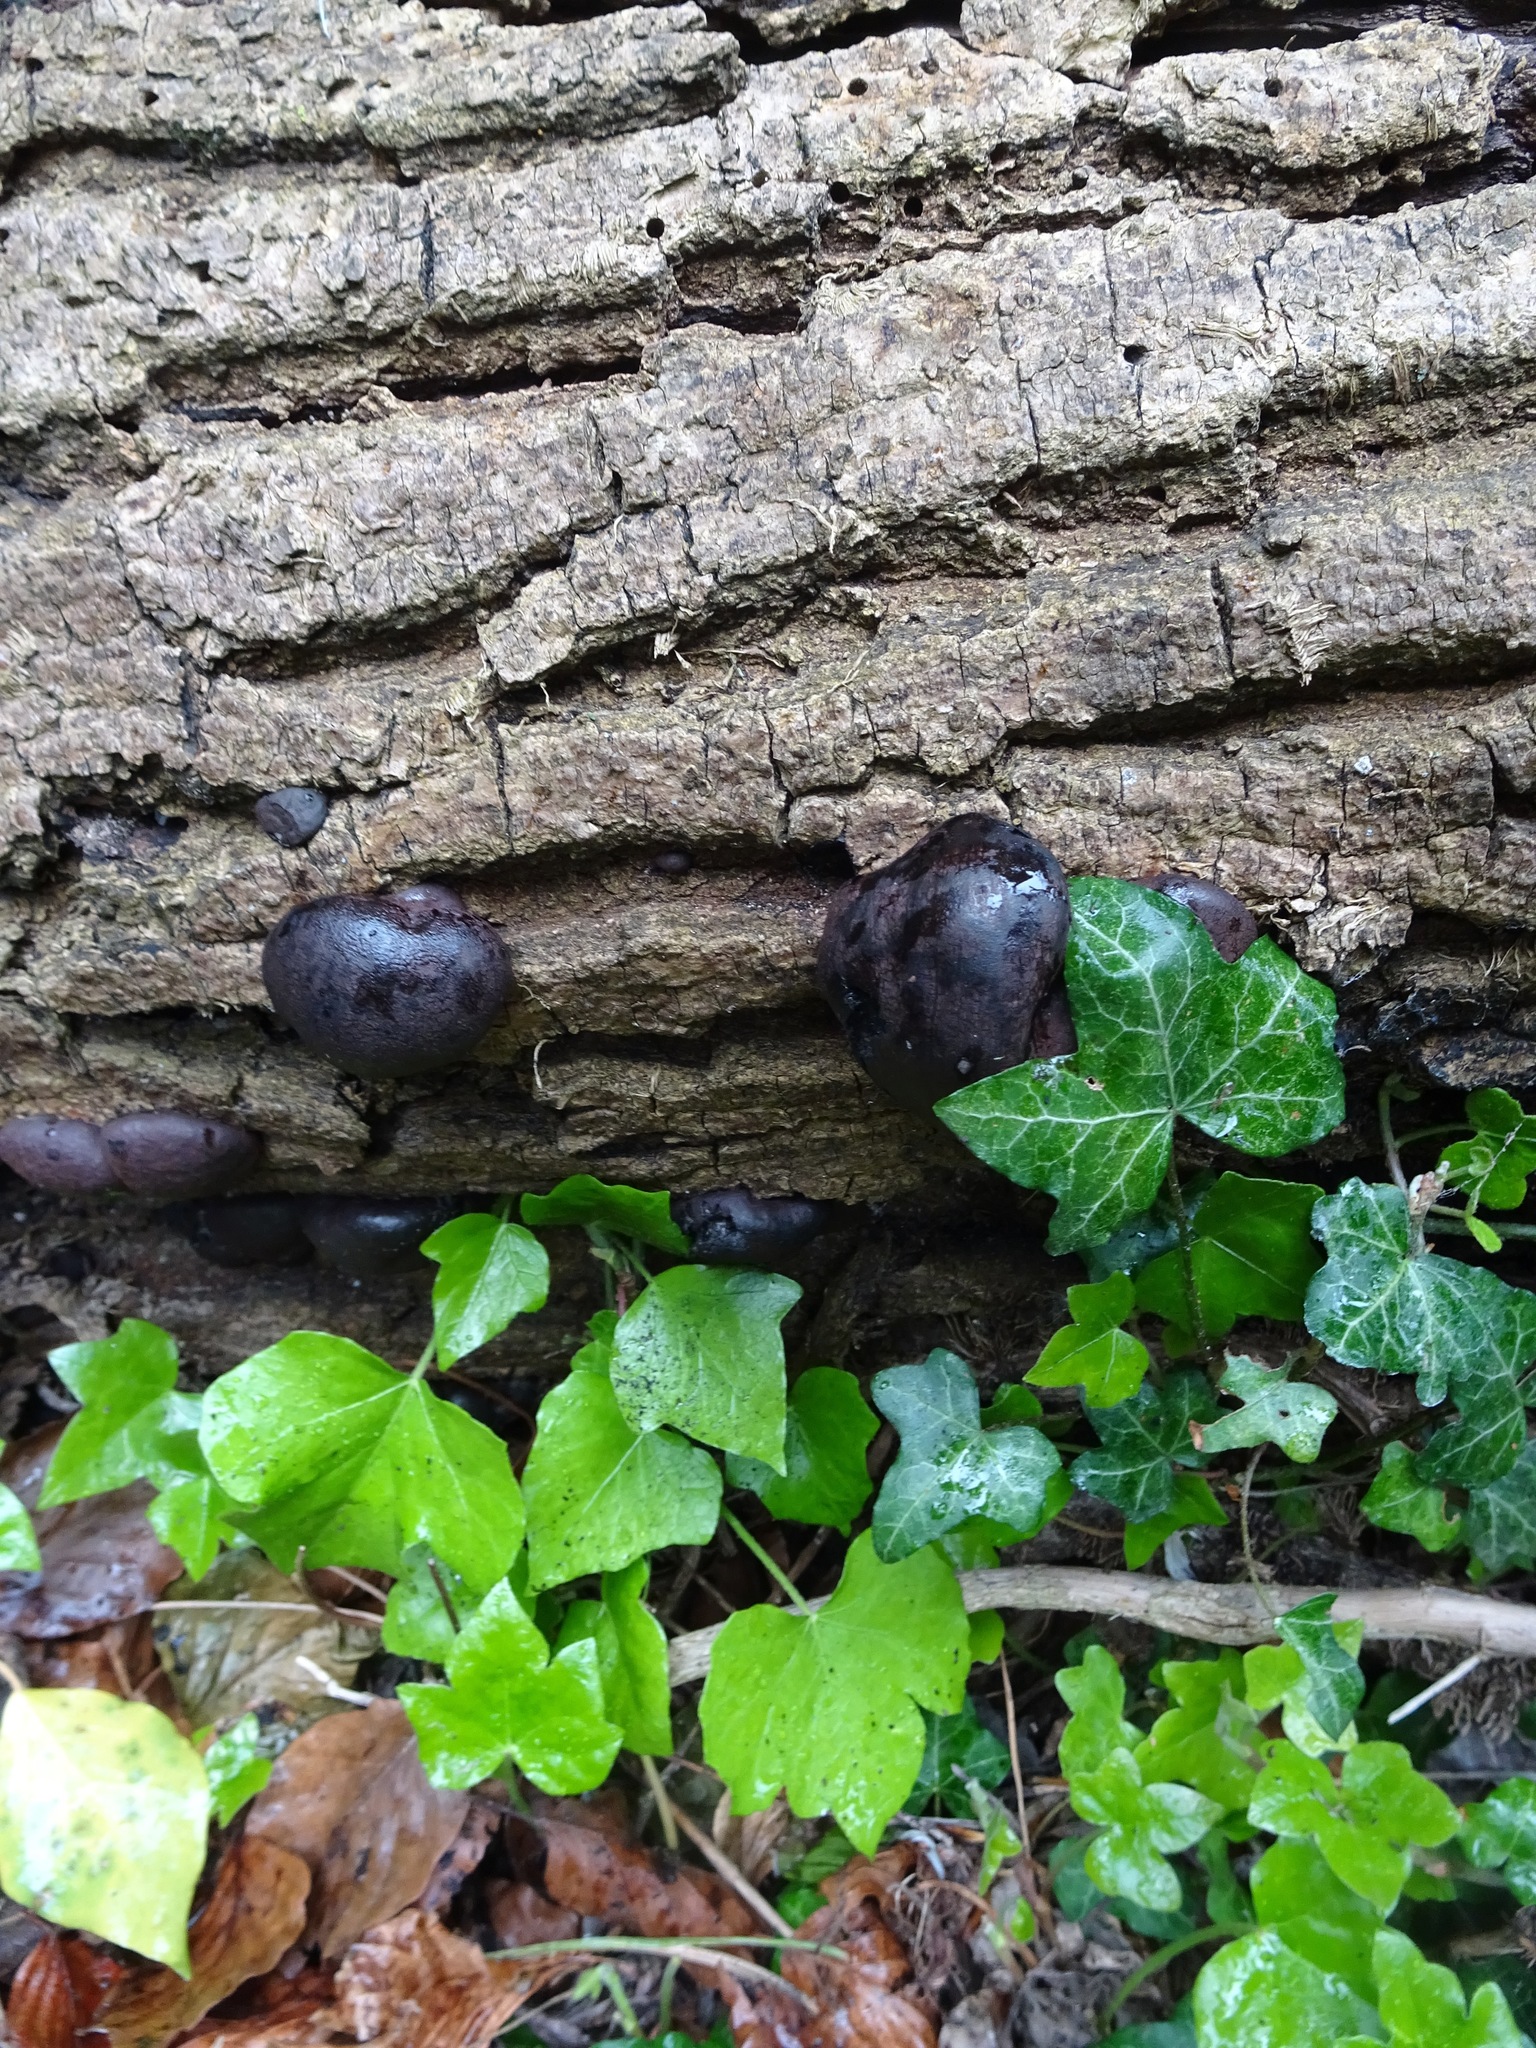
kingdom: Fungi
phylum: Ascomycota
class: Sordariomycetes
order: Xylariales
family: Hypoxylaceae
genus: Daldinia
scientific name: Daldinia concentrica
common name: Cramp balls
